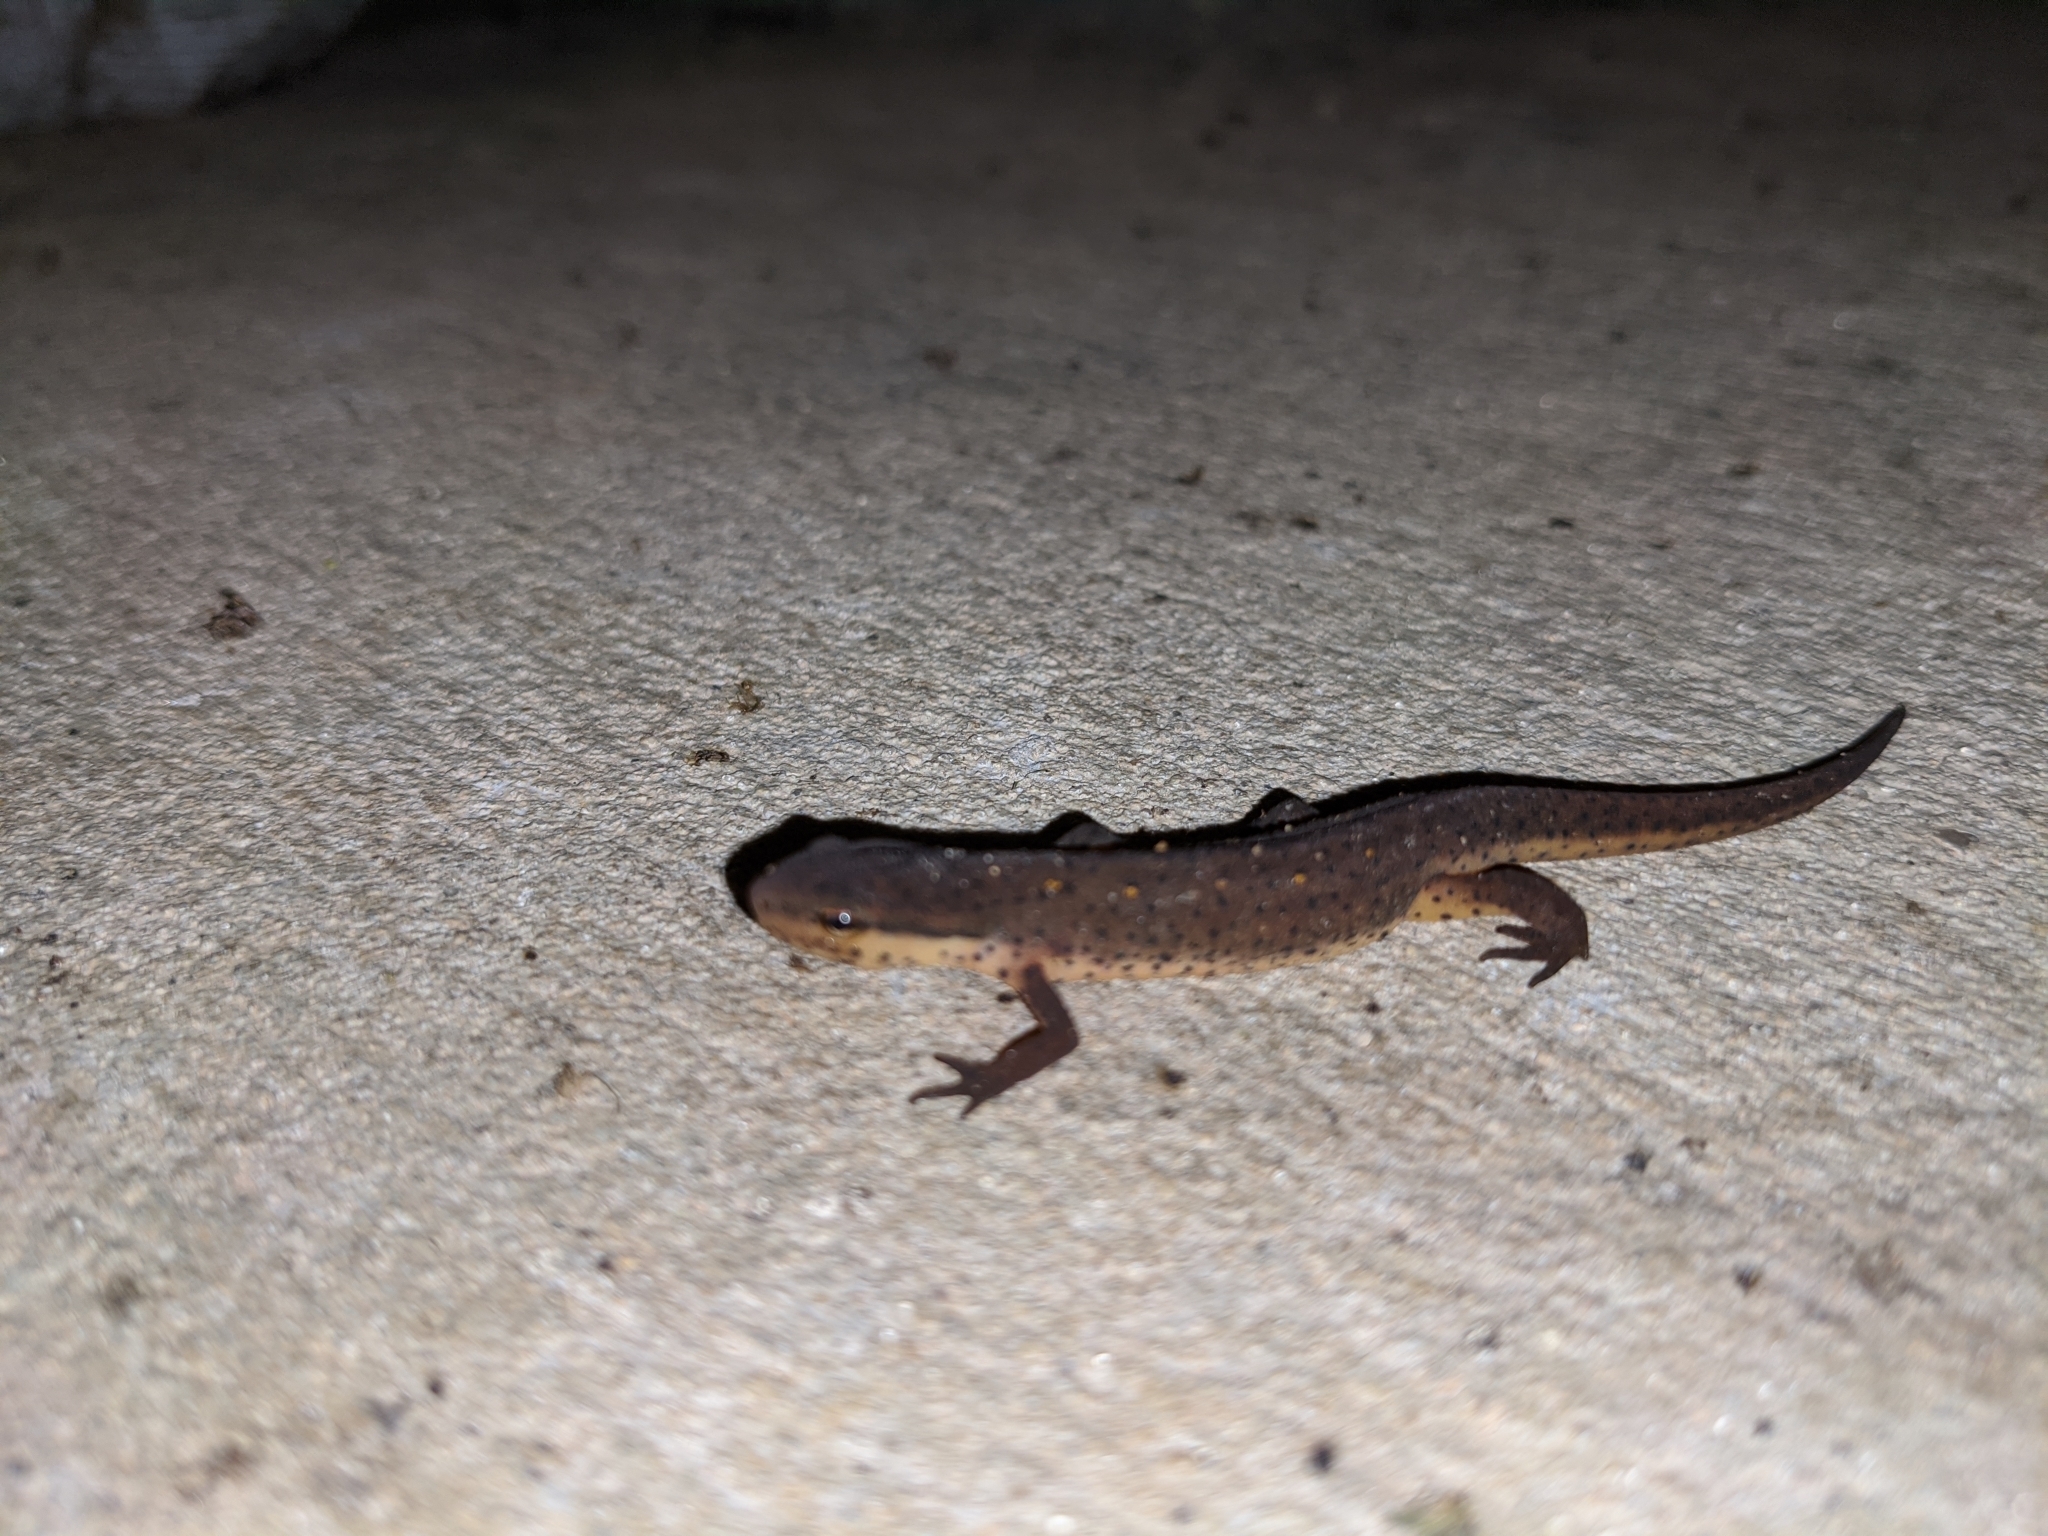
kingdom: Animalia
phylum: Chordata
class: Amphibia
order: Caudata
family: Salamandridae
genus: Notophthalmus
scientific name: Notophthalmus viridescens
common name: Eastern newt
